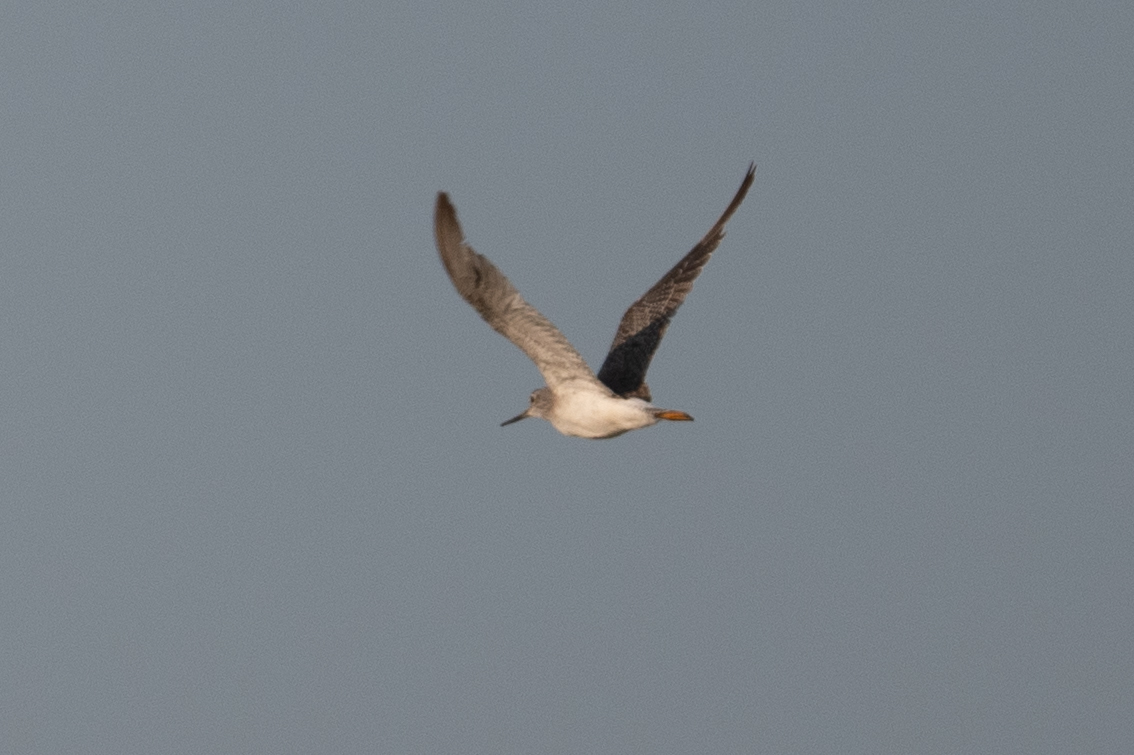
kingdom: Animalia
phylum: Chordata
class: Aves
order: Charadriiformes
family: Scolopacidae
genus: Tringa
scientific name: Tringa melanoleuca
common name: Greater yellowlegs
